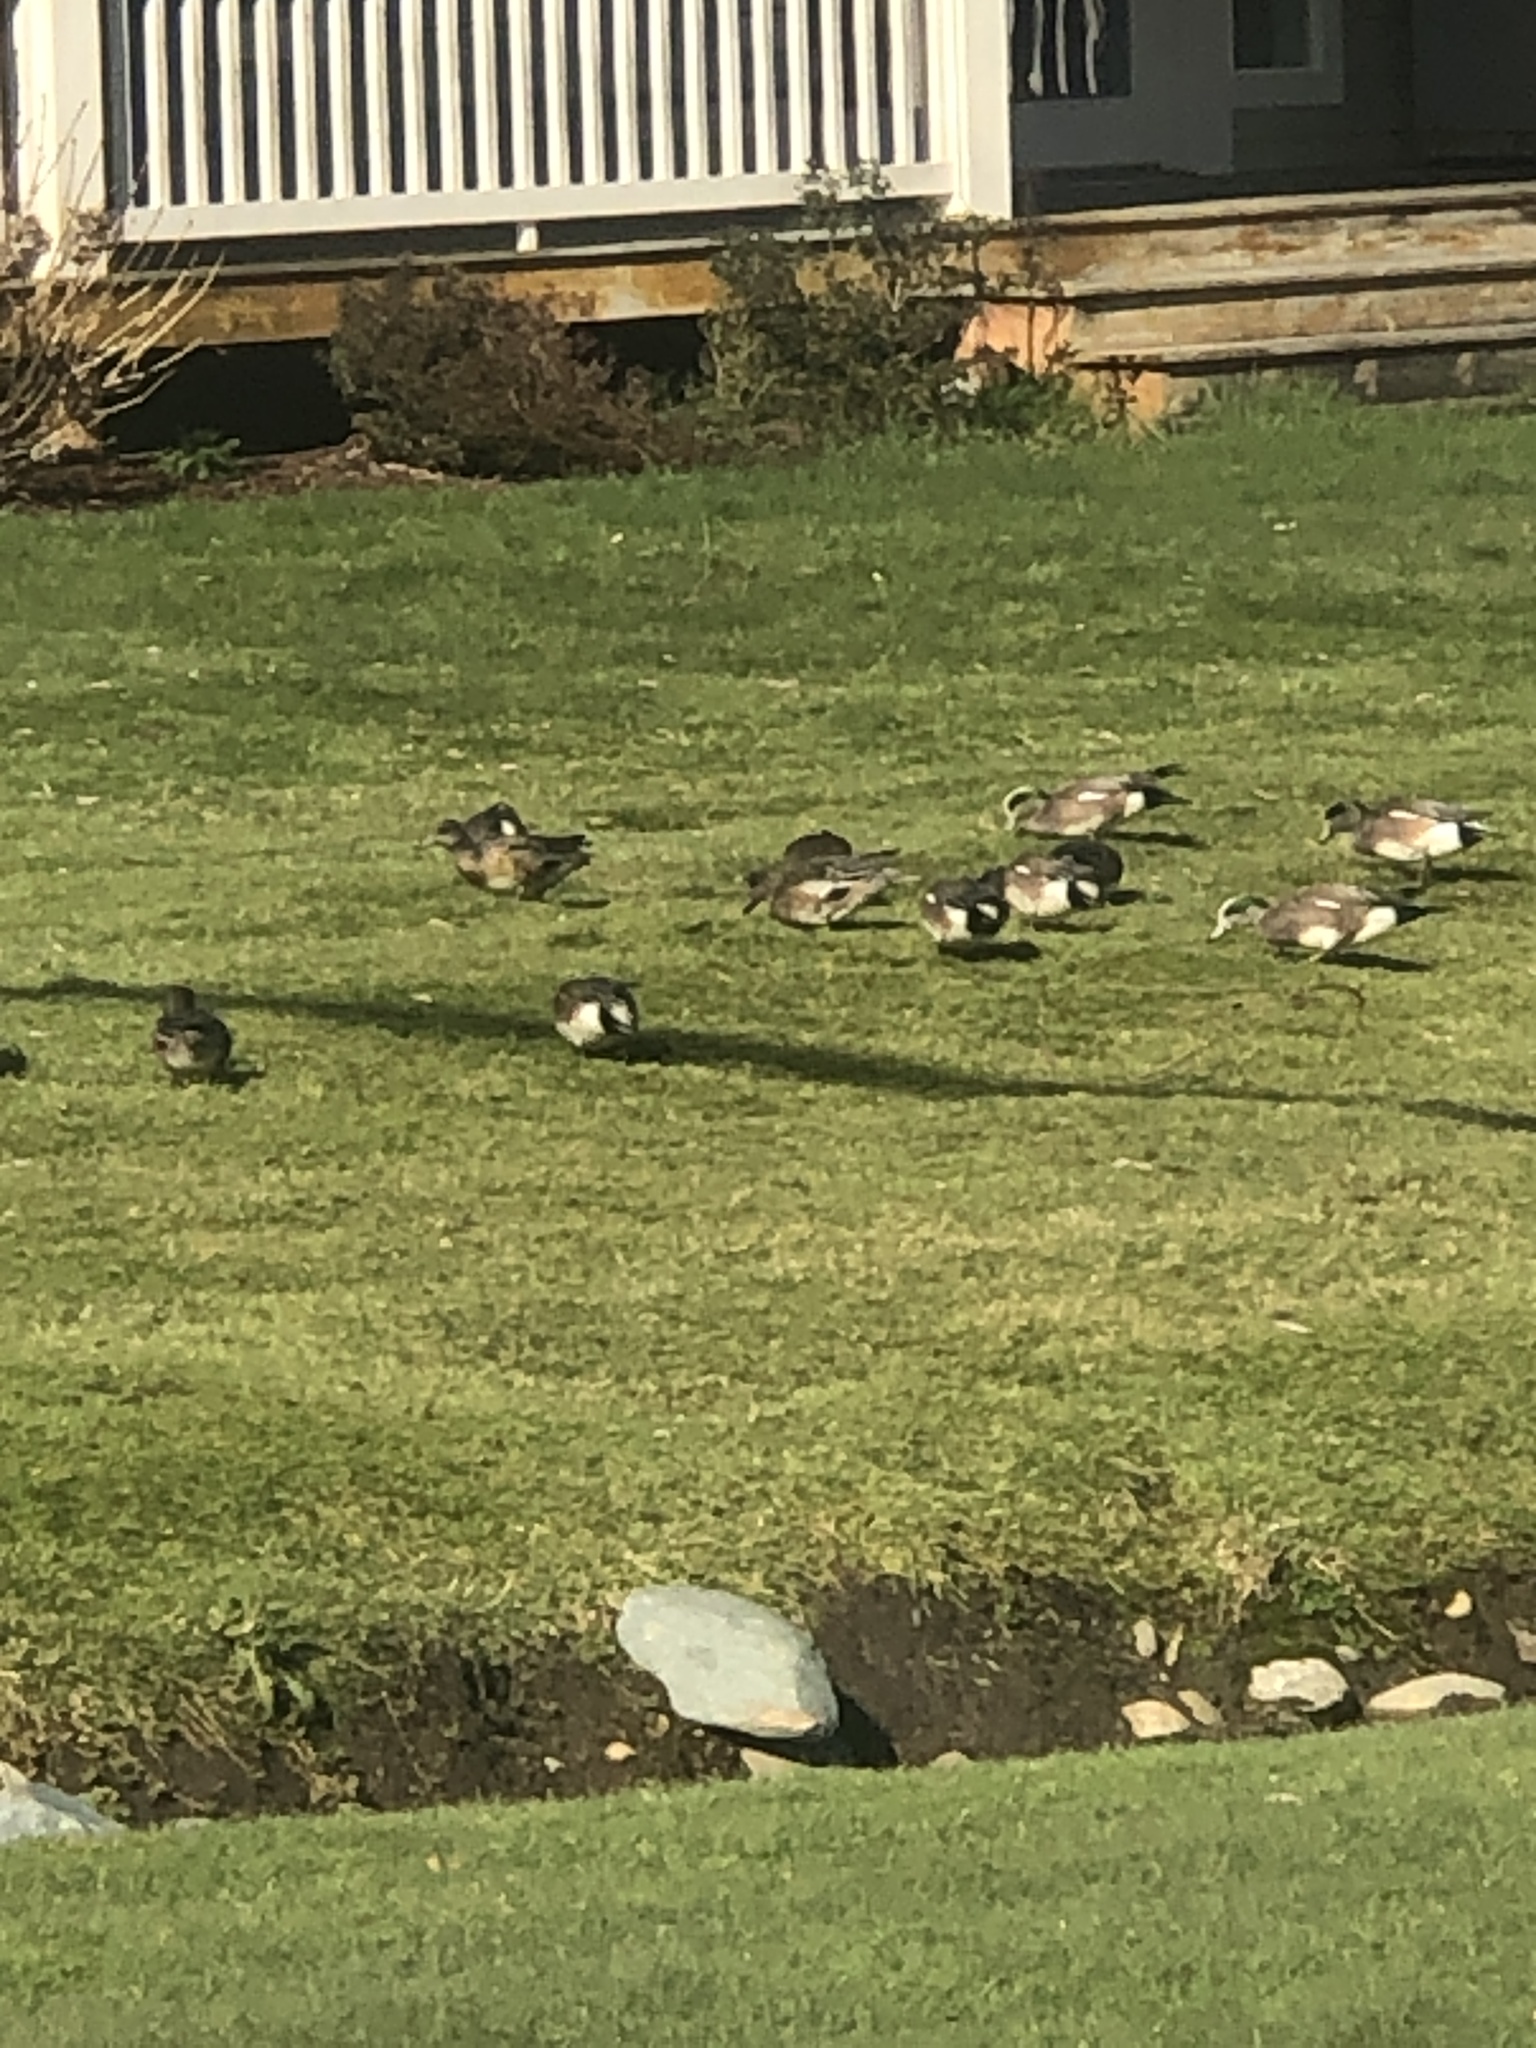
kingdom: Animalia
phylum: Chordata
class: Aves
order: Anseriformes
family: Anatidae
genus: Mareca
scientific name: Mareca americana
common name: American wigeon
